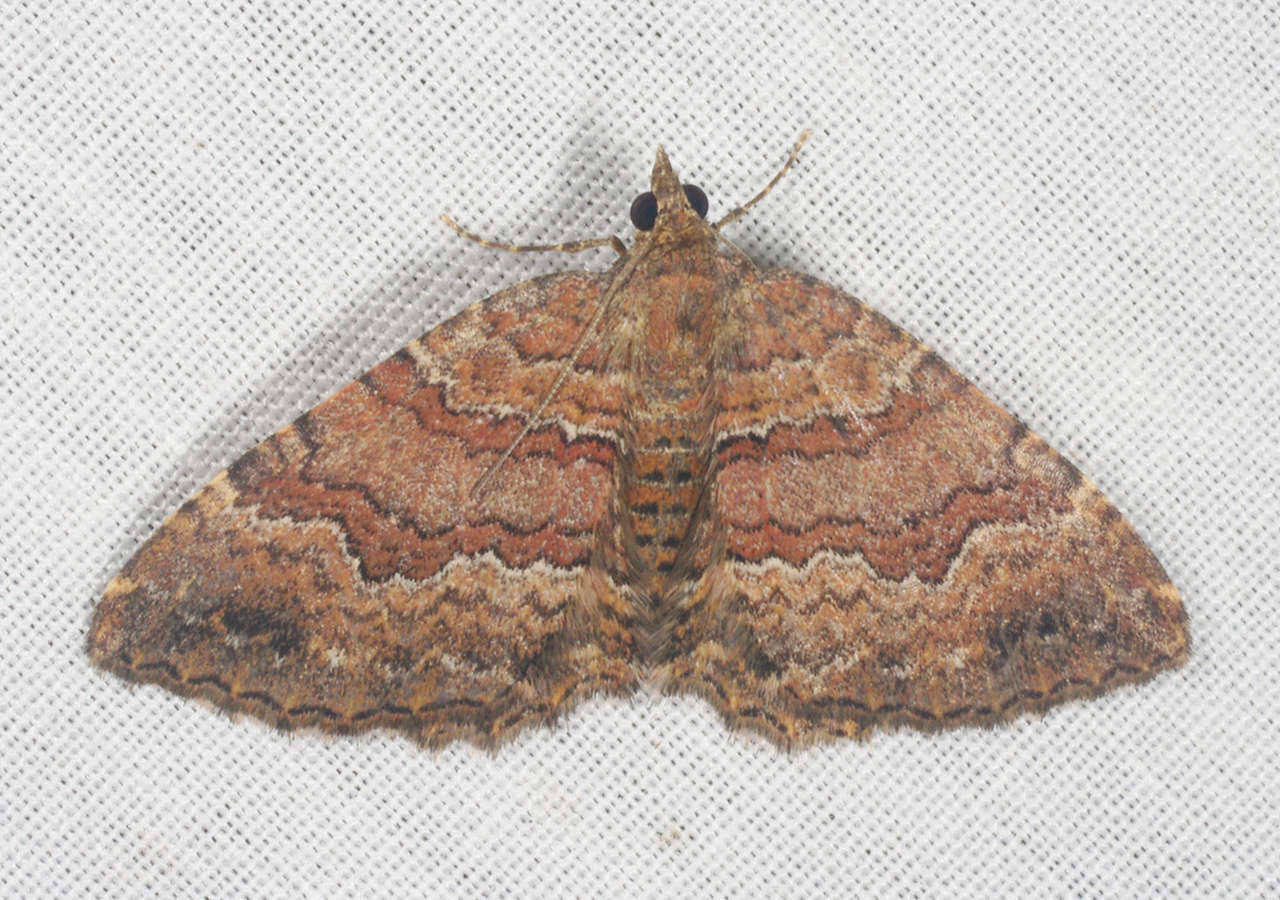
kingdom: Animalia
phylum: Arthropoda
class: Insecta
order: Lepidoptera
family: Geometridae
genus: Chrysolarentia
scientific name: Chrysolarentia bichromata
